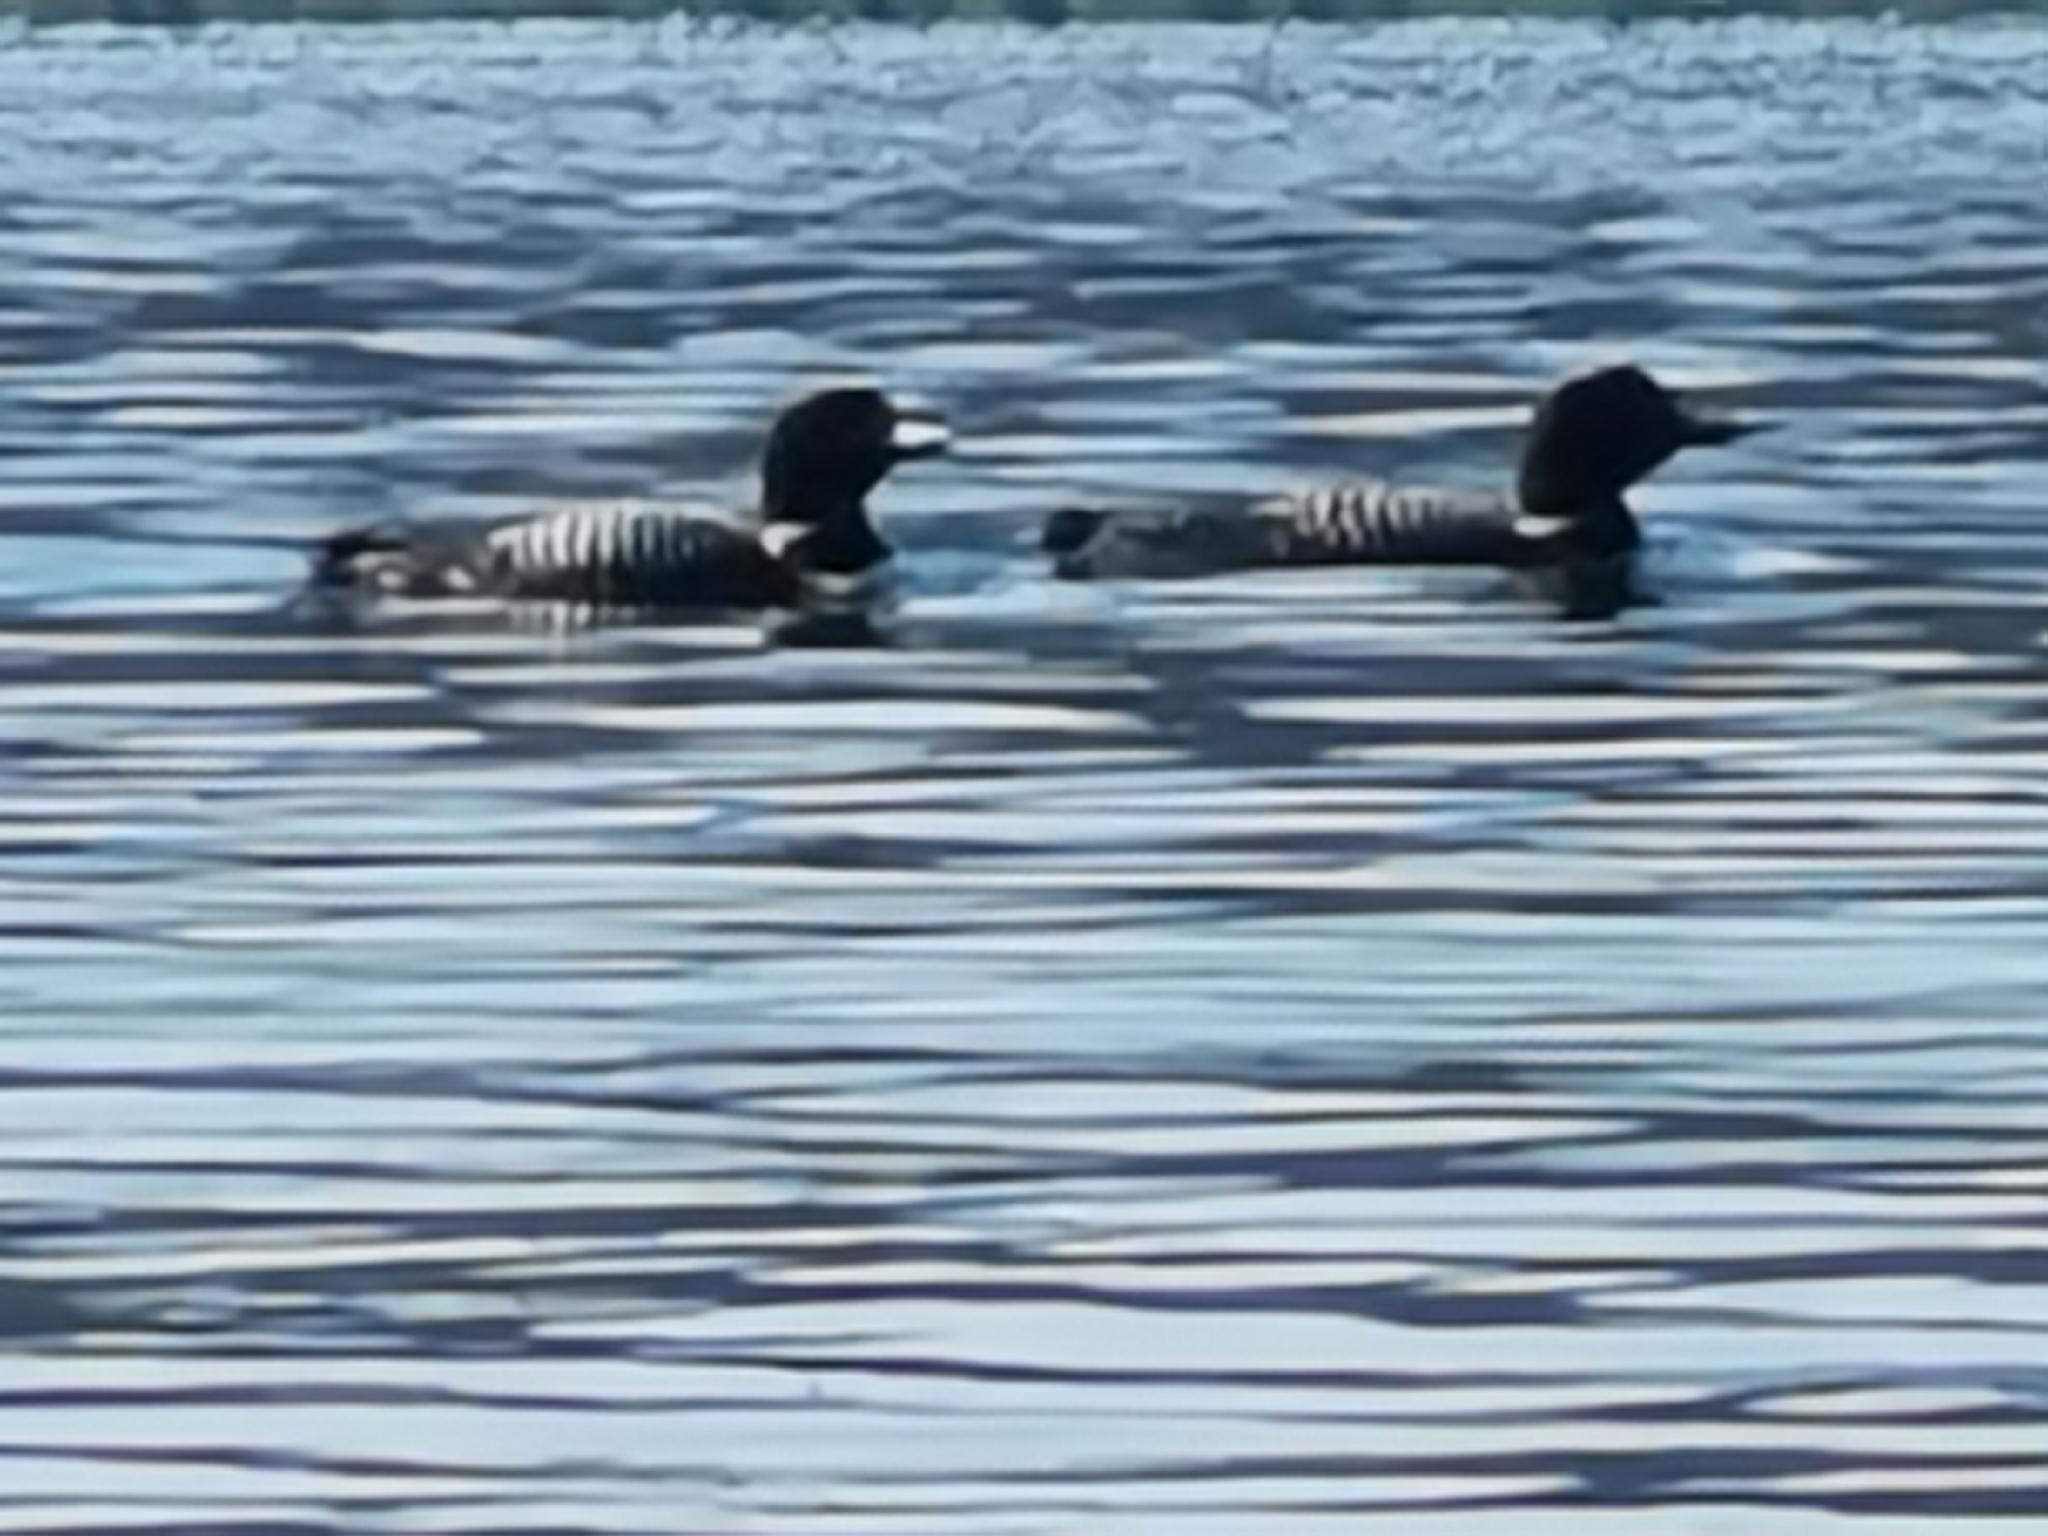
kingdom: Animalia
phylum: Chordata
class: Aves
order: Gaviiformes
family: Gaviidae
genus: Gavia
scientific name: Gavia immer
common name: Common loon
